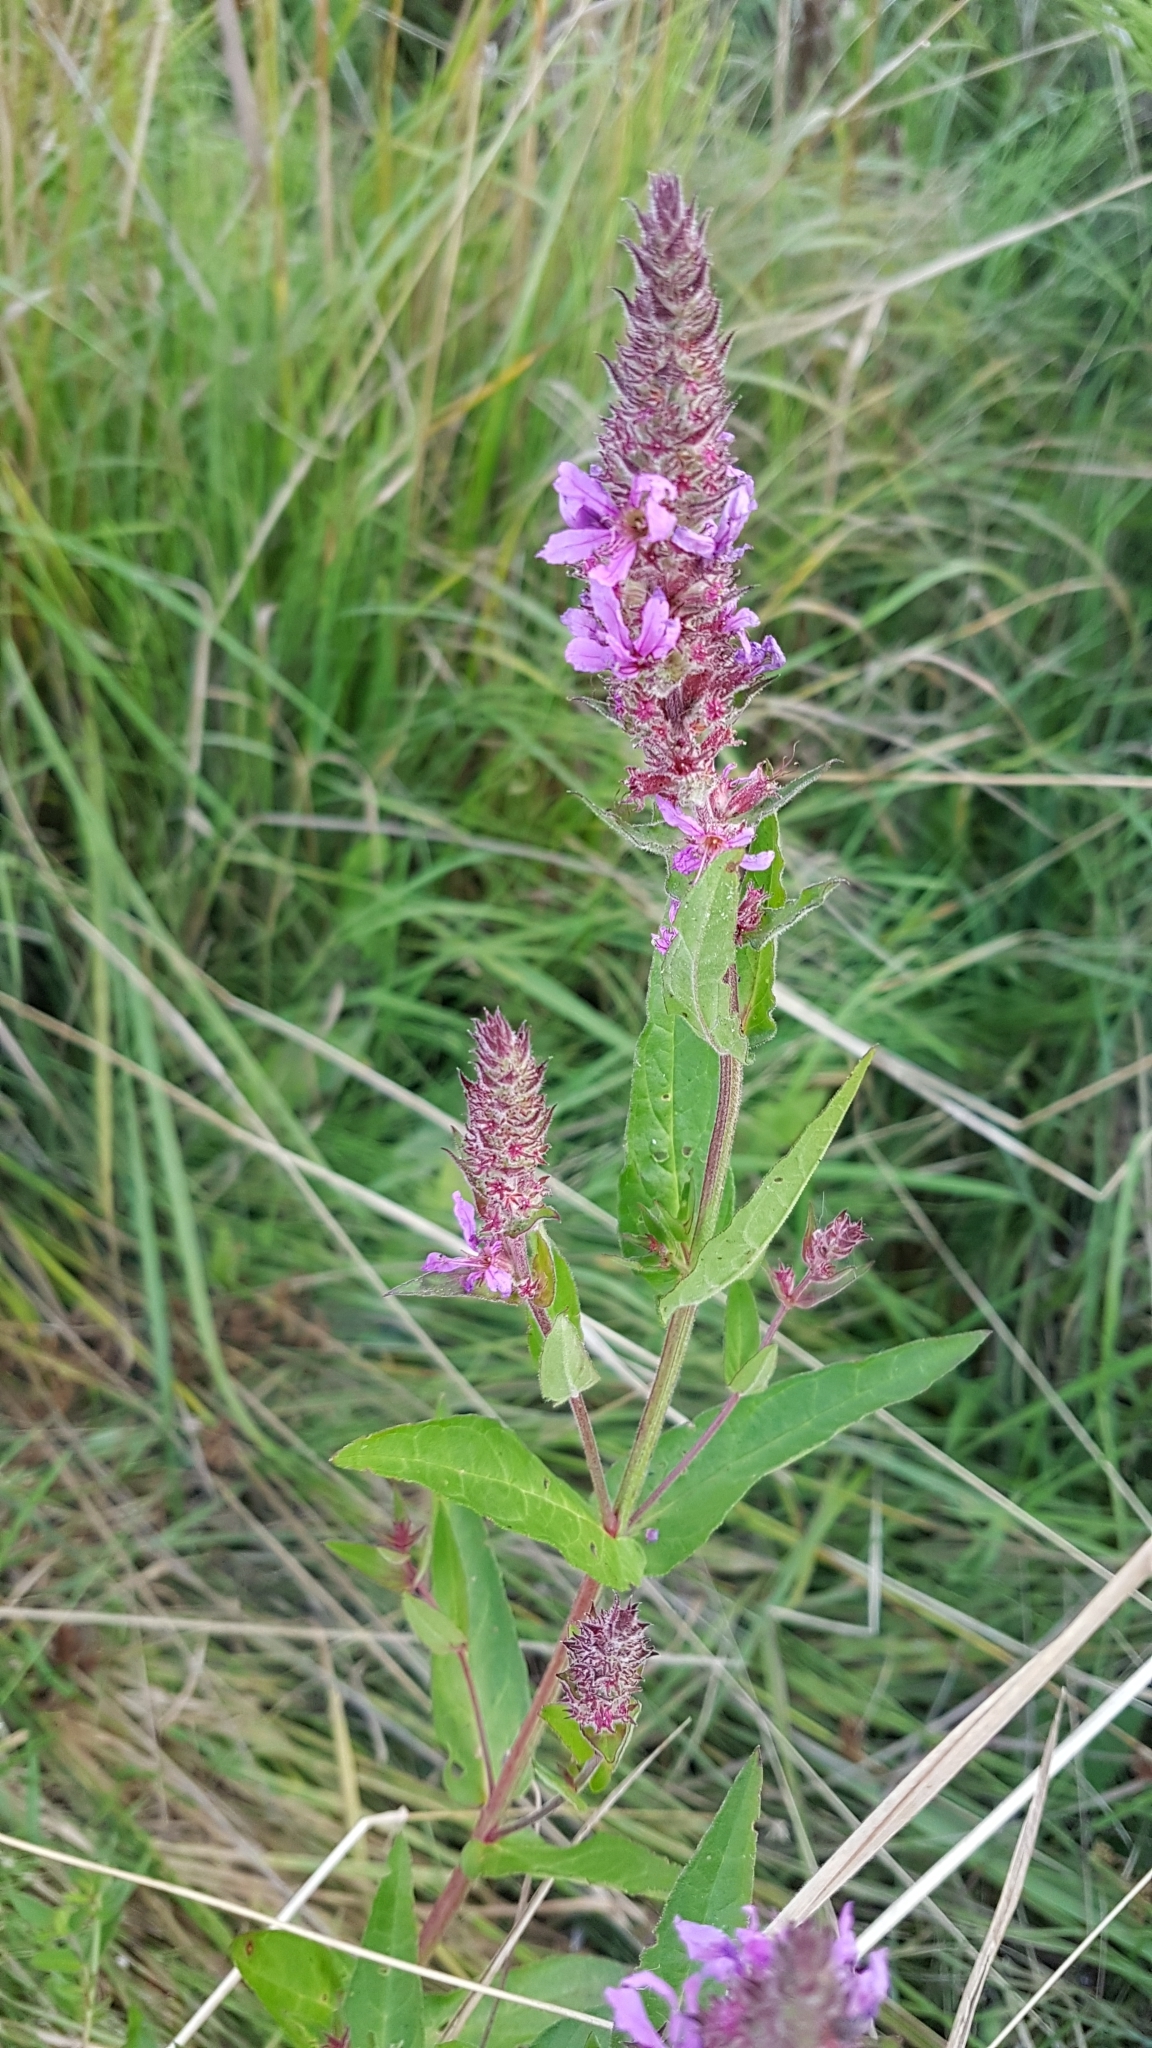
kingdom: Plantae
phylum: Tracheophyta
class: Magnoliopsida
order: Myrtales
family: Lythraceae
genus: Lythrum
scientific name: Lythrum salicaria
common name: Purple loosestrife
